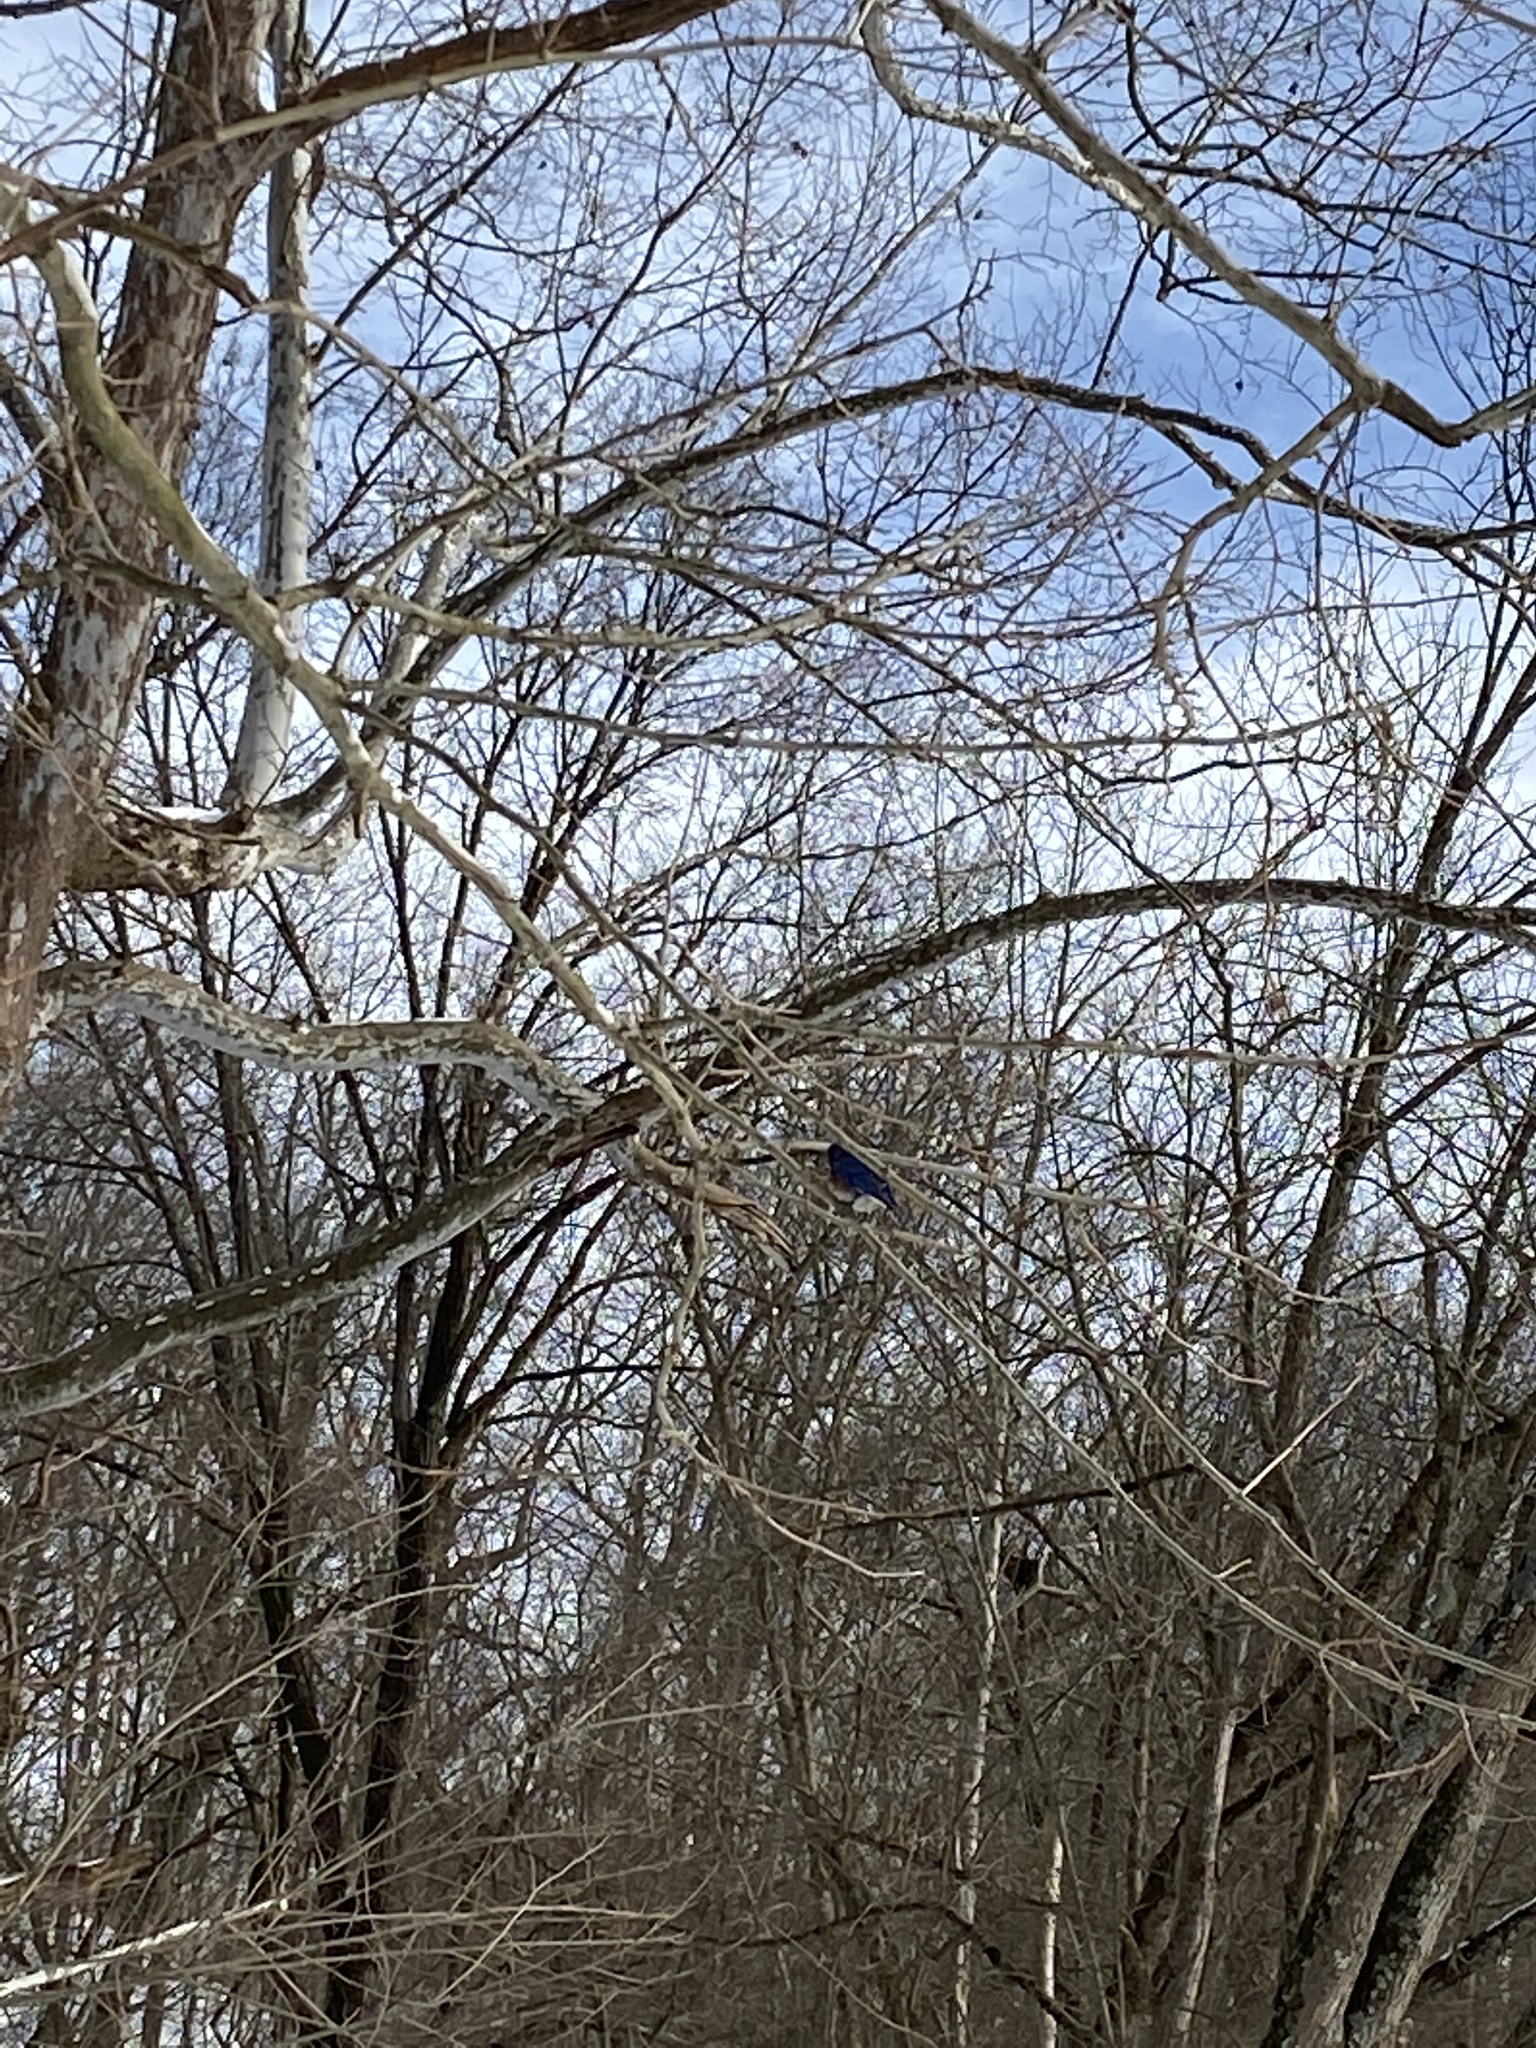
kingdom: Animalia
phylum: Chordata
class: Aves
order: Passeriformes
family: Turdidae
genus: Sialia
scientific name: Sialia sialis
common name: Eastern bluebird
